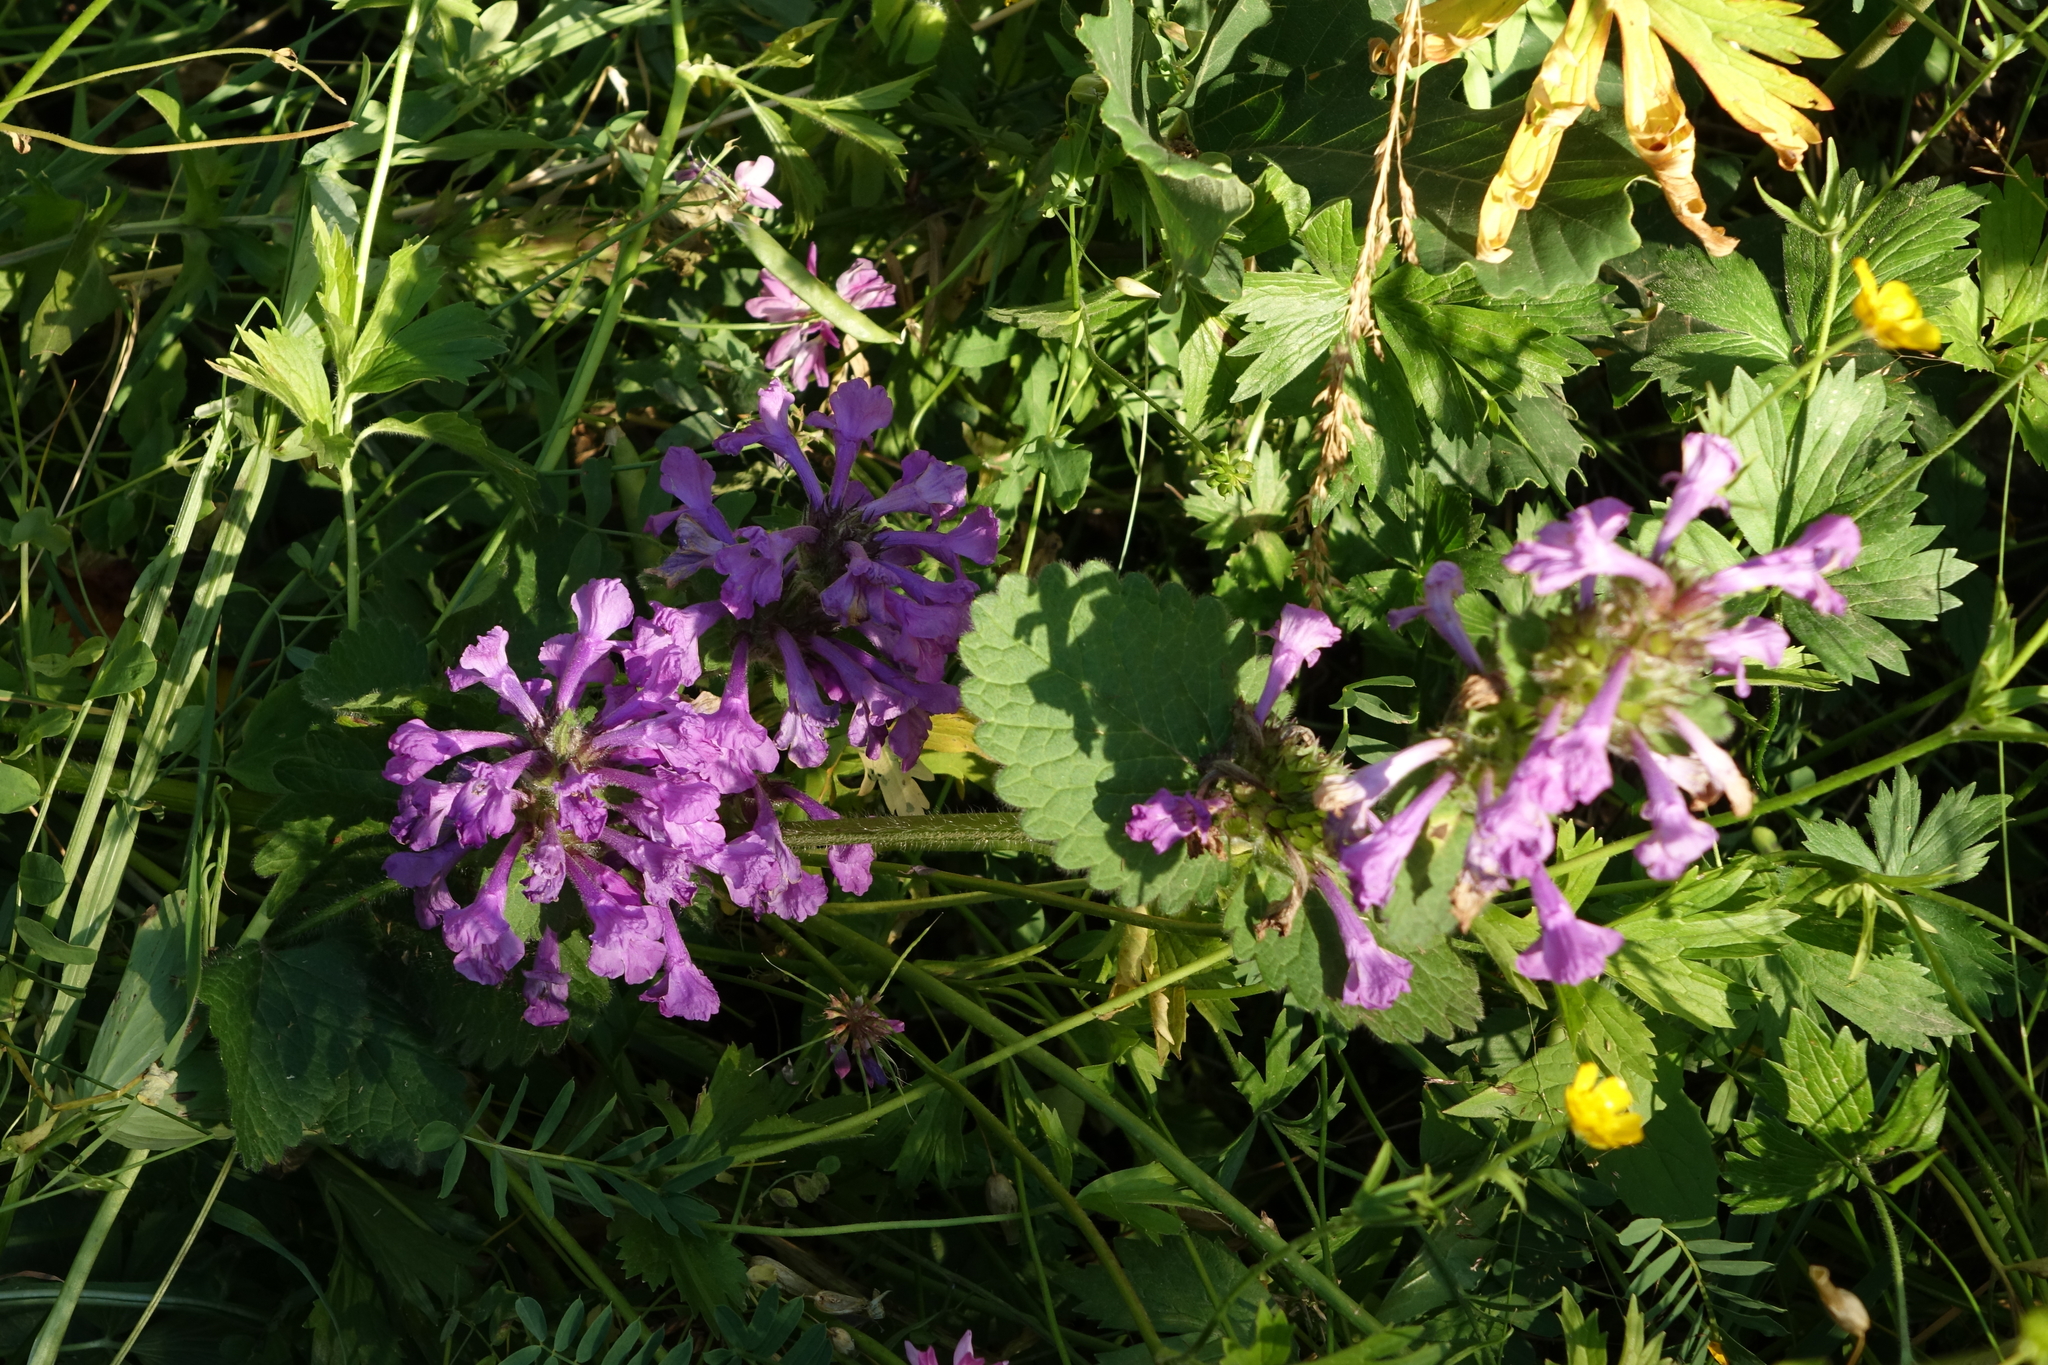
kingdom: Plantae
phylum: Tracheophyta
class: Magnoliopsida
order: Lamiales
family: Lamiaceae
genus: Betonica
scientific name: Betonica macrantha
